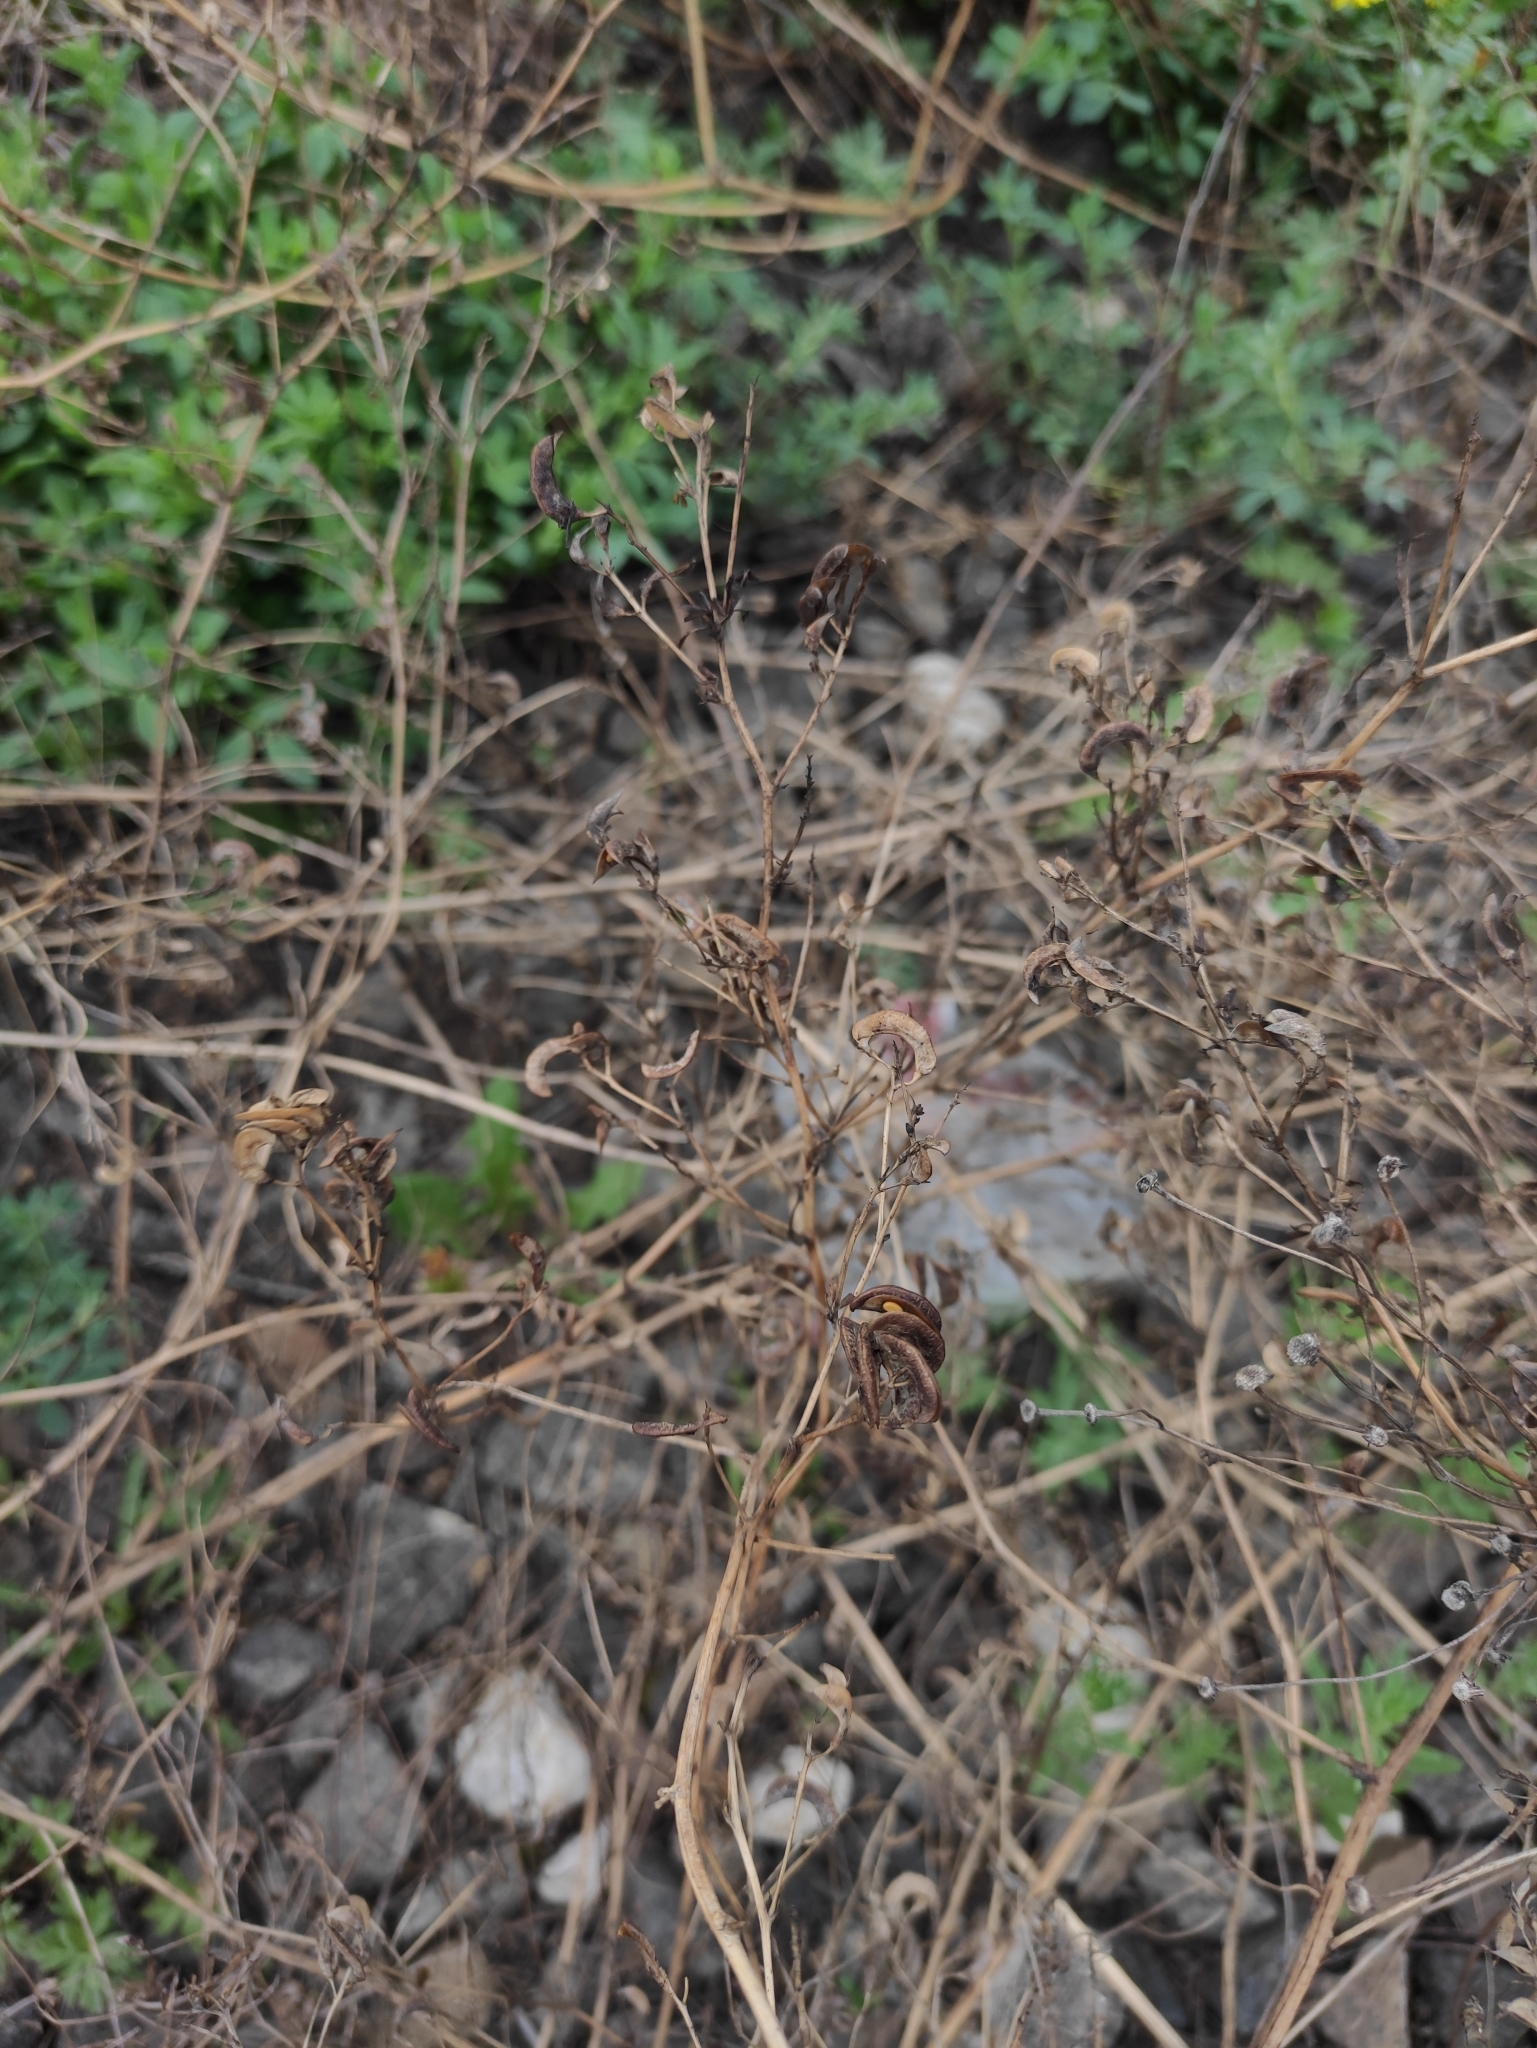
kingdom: Plantae
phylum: Tracheophyta
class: Magnoliopsida
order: Fabales
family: Fabaceae
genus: Medicago
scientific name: Medicago falcata
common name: Sickle medick
